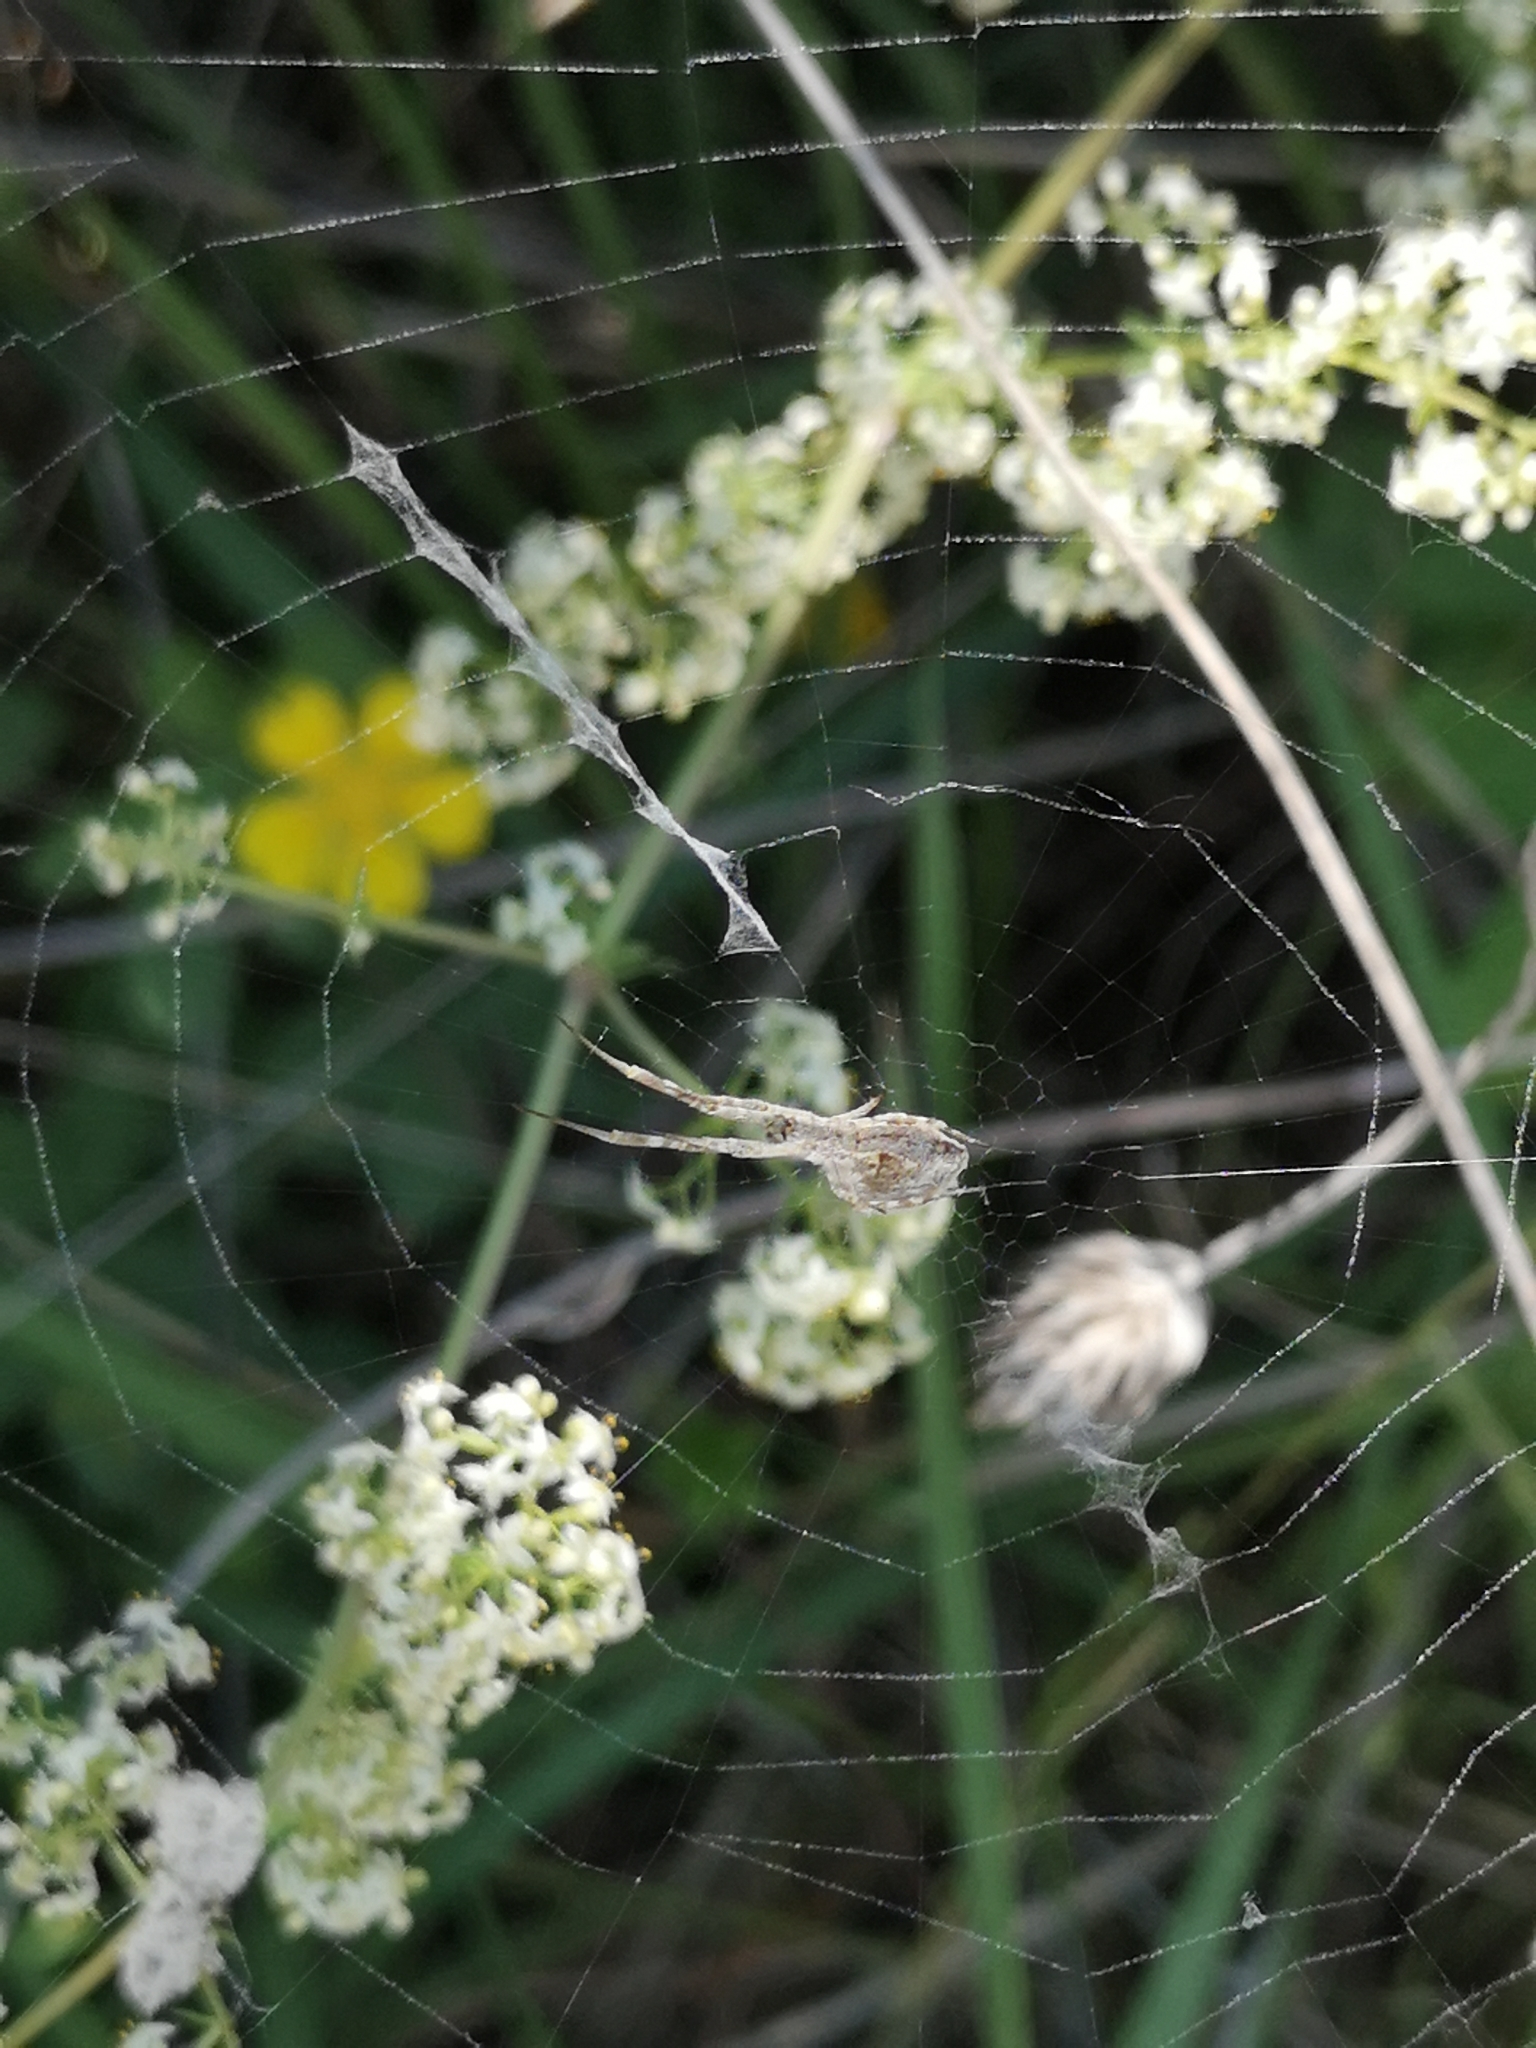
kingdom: Animalia
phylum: Arthropoda
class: Arachnida
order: Araneae
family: Uloboridae
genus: Uloborus
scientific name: Uloborus walckenaerius
